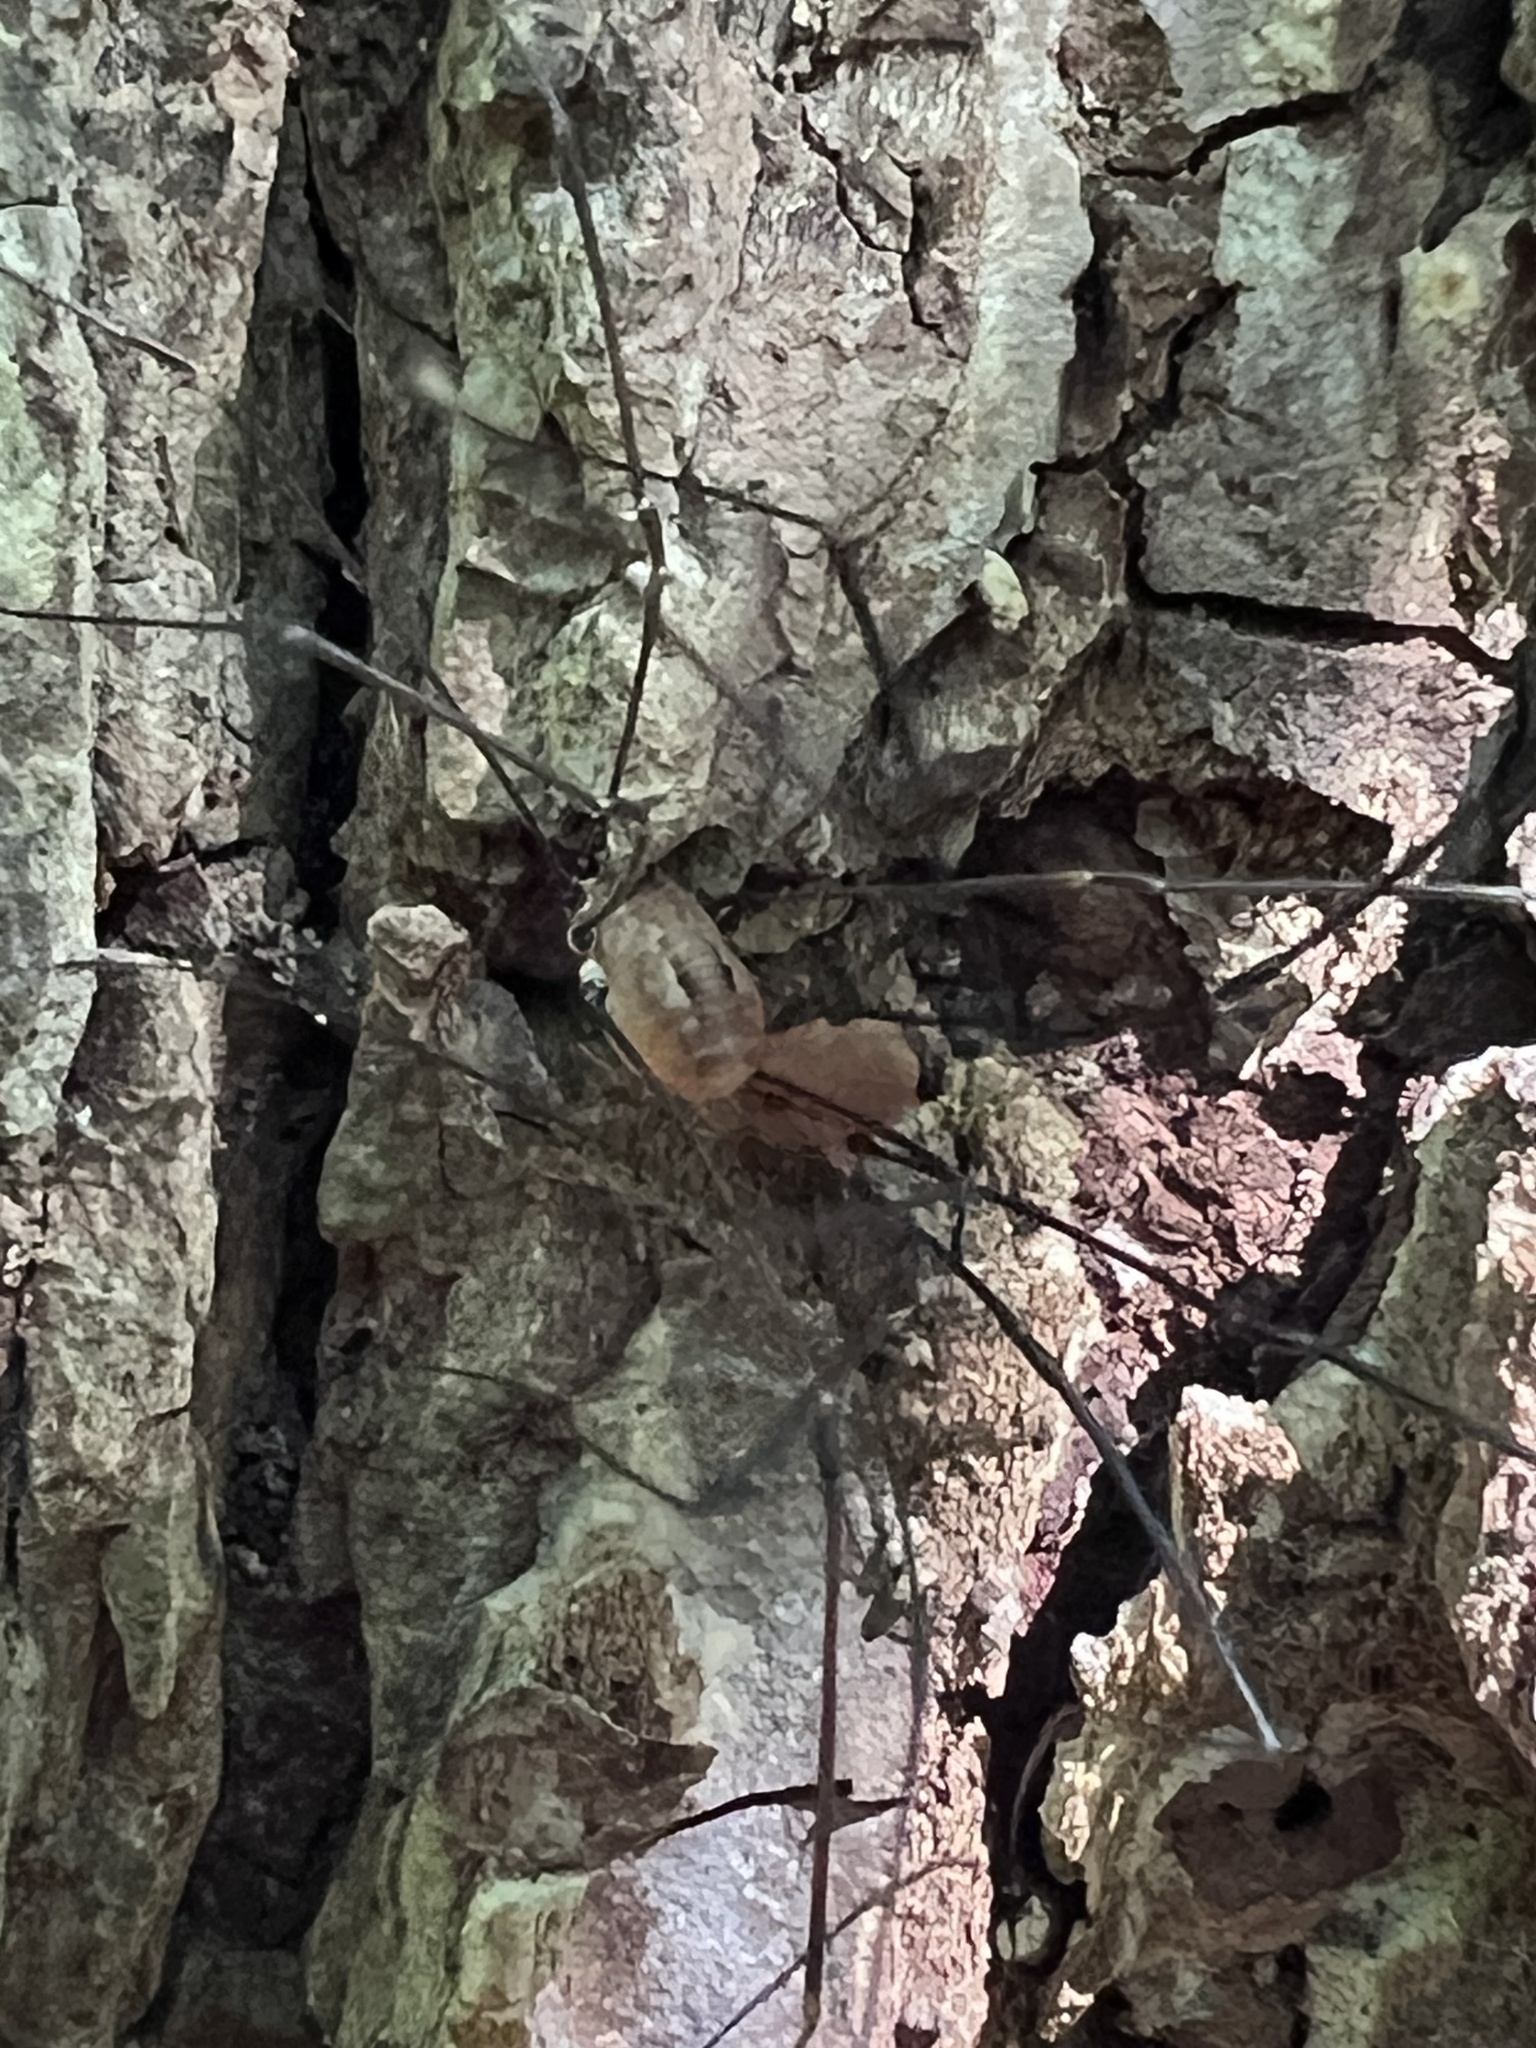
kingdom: Animalia
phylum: Arthropoda
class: Arachnida
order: Opiliones
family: Sclerosomatidae
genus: Leiobunum
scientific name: Leiobunum vittatum
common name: Eastern harvestman
